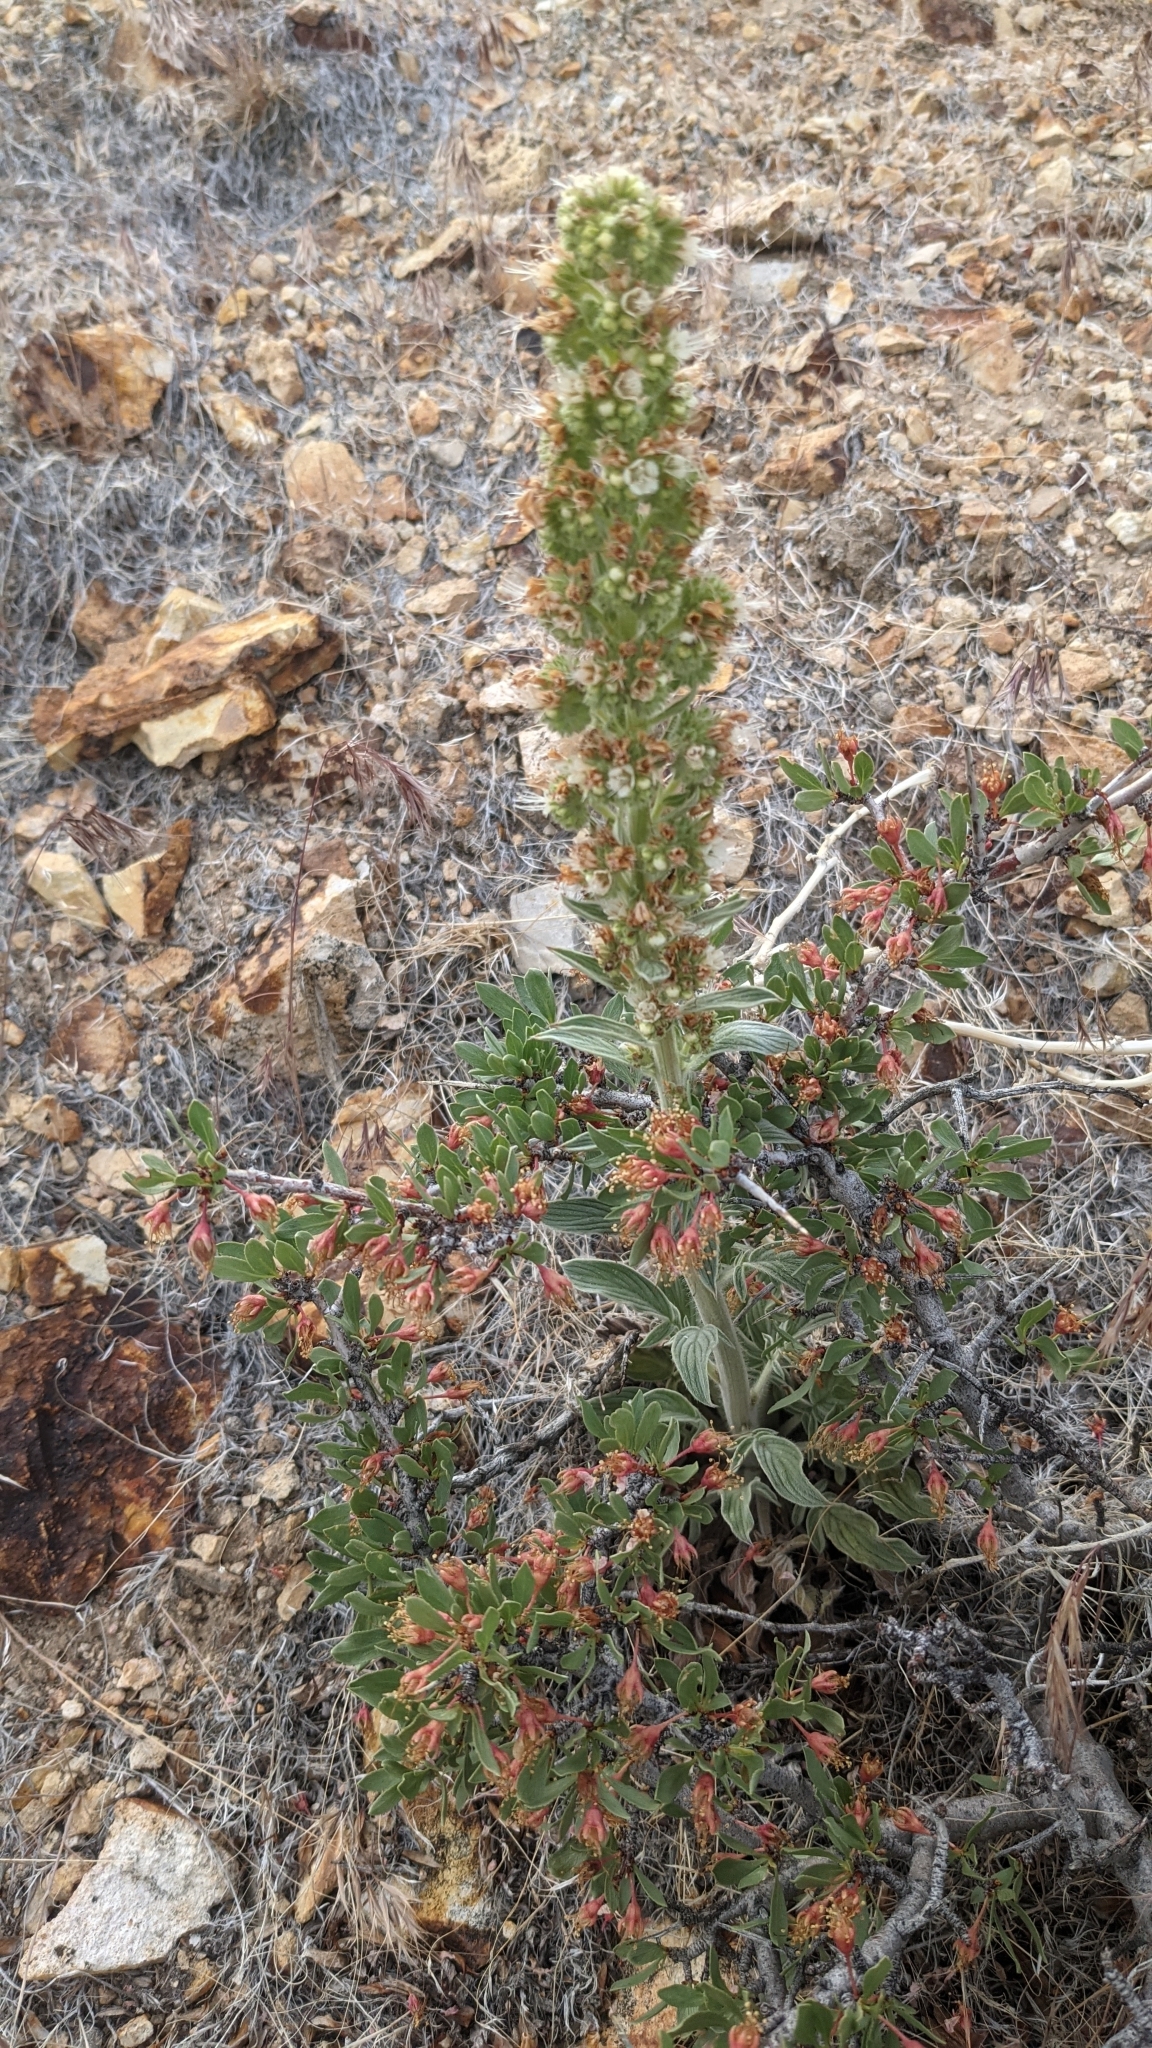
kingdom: Plantae
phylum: Tracheophyta
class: Magnoliopsida
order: Boraginales
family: Hydrophyllaceae
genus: Phacelia
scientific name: Phacelia heterophylla
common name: Variable-leaved phacelia
